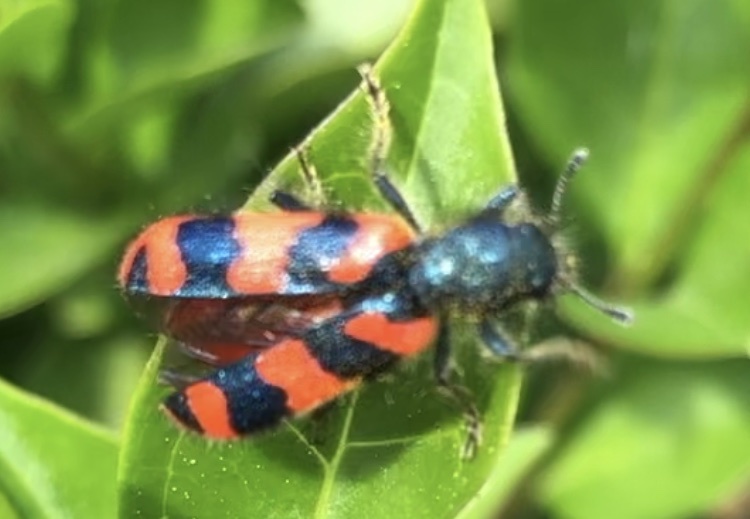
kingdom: Animalia
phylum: Arthropoda
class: Insecta
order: Coleoptera
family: Cleridae
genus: Trichodes
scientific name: Trichodes alvearius
